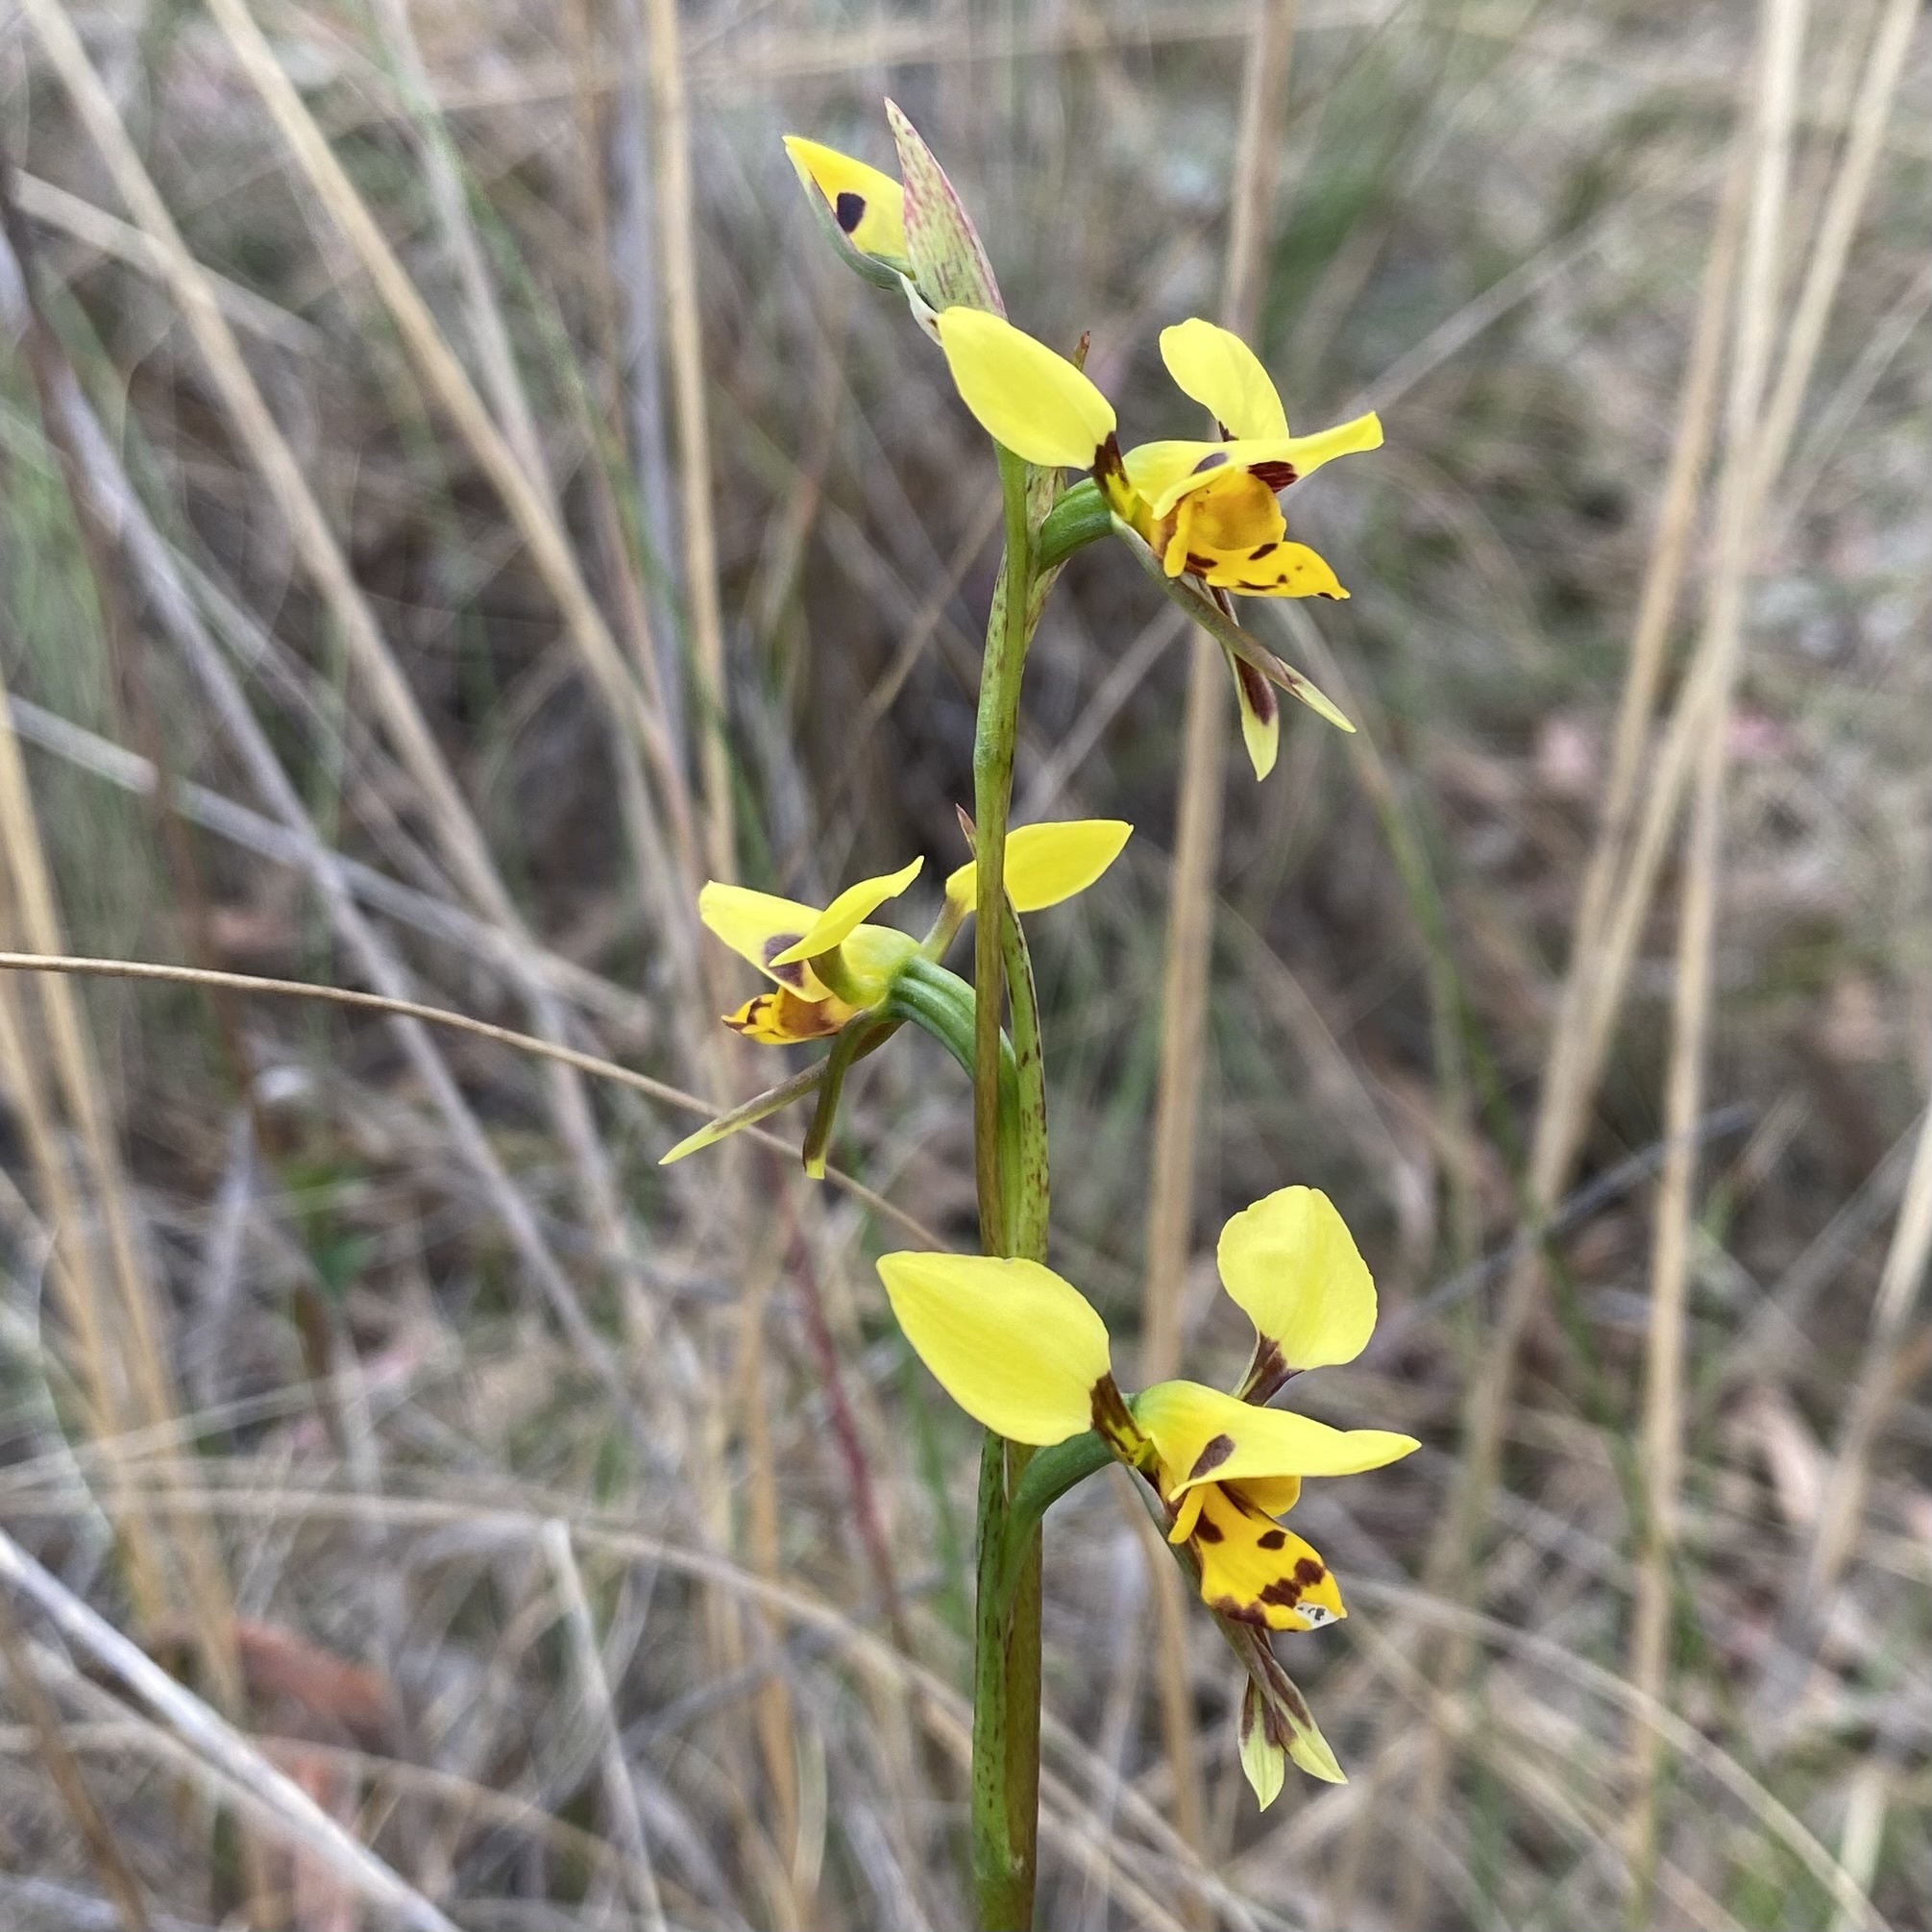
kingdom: Plantae
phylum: Tracheophyta
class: Liliopsida
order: Asparagales
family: Orchidaceae
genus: Diuris
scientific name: Diuris sulphurea
